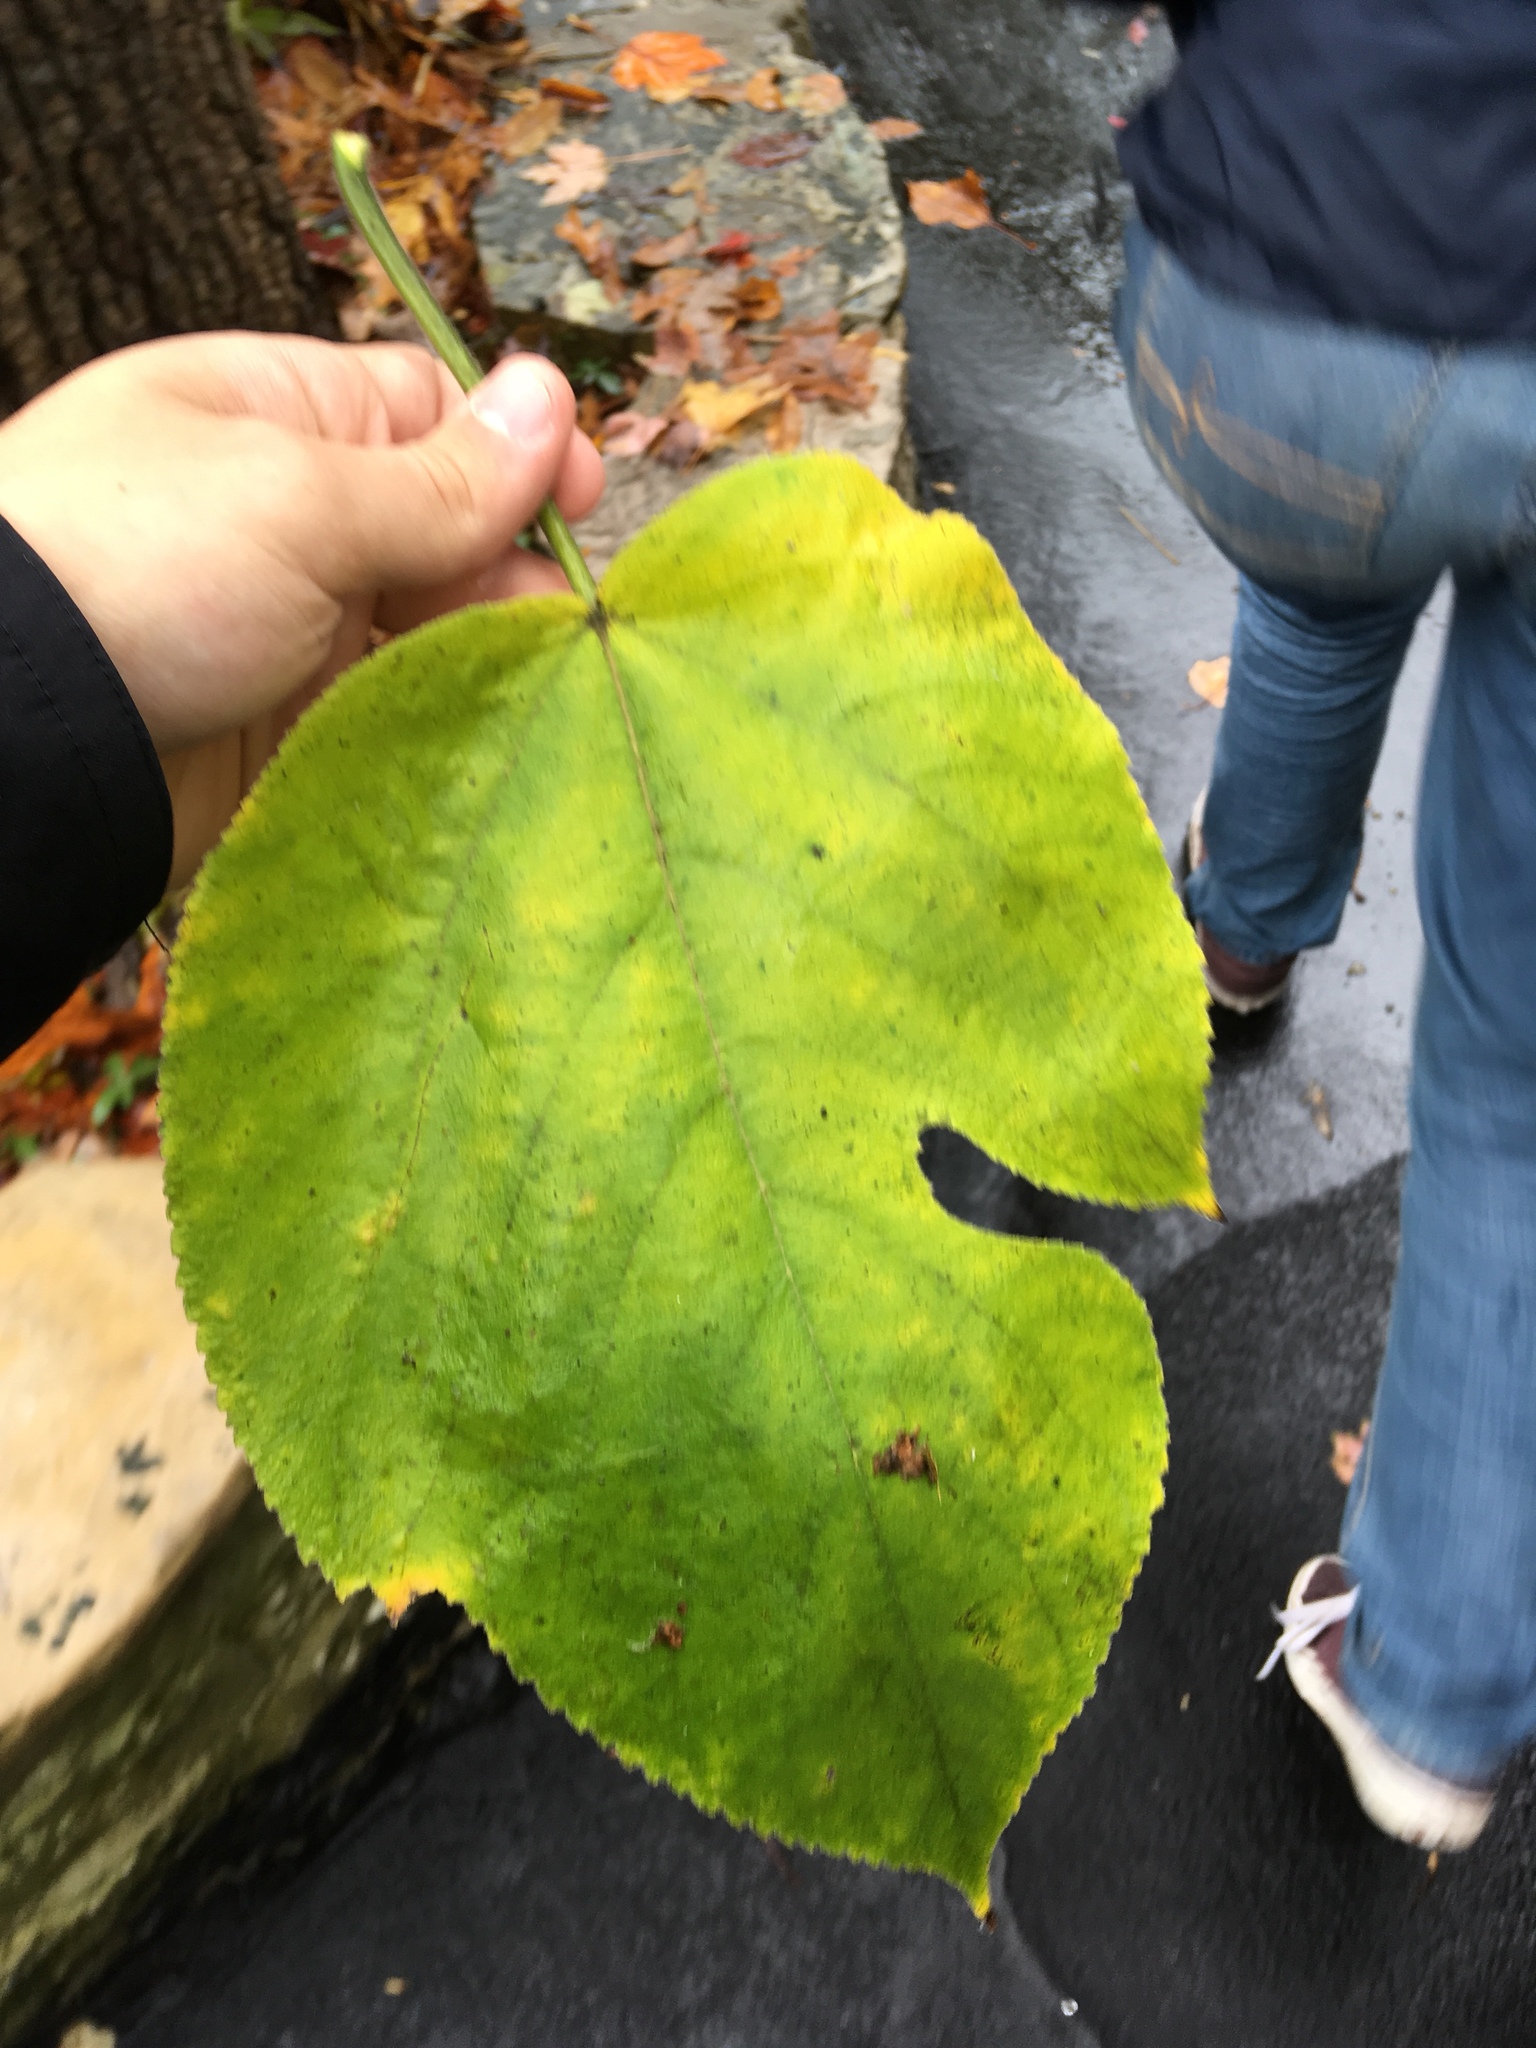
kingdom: Plantae
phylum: Tracheophyta
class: Magnoliopsida
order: Rosales
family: Moraceae
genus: Morus
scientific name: Morus rubra
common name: Red mulberry
